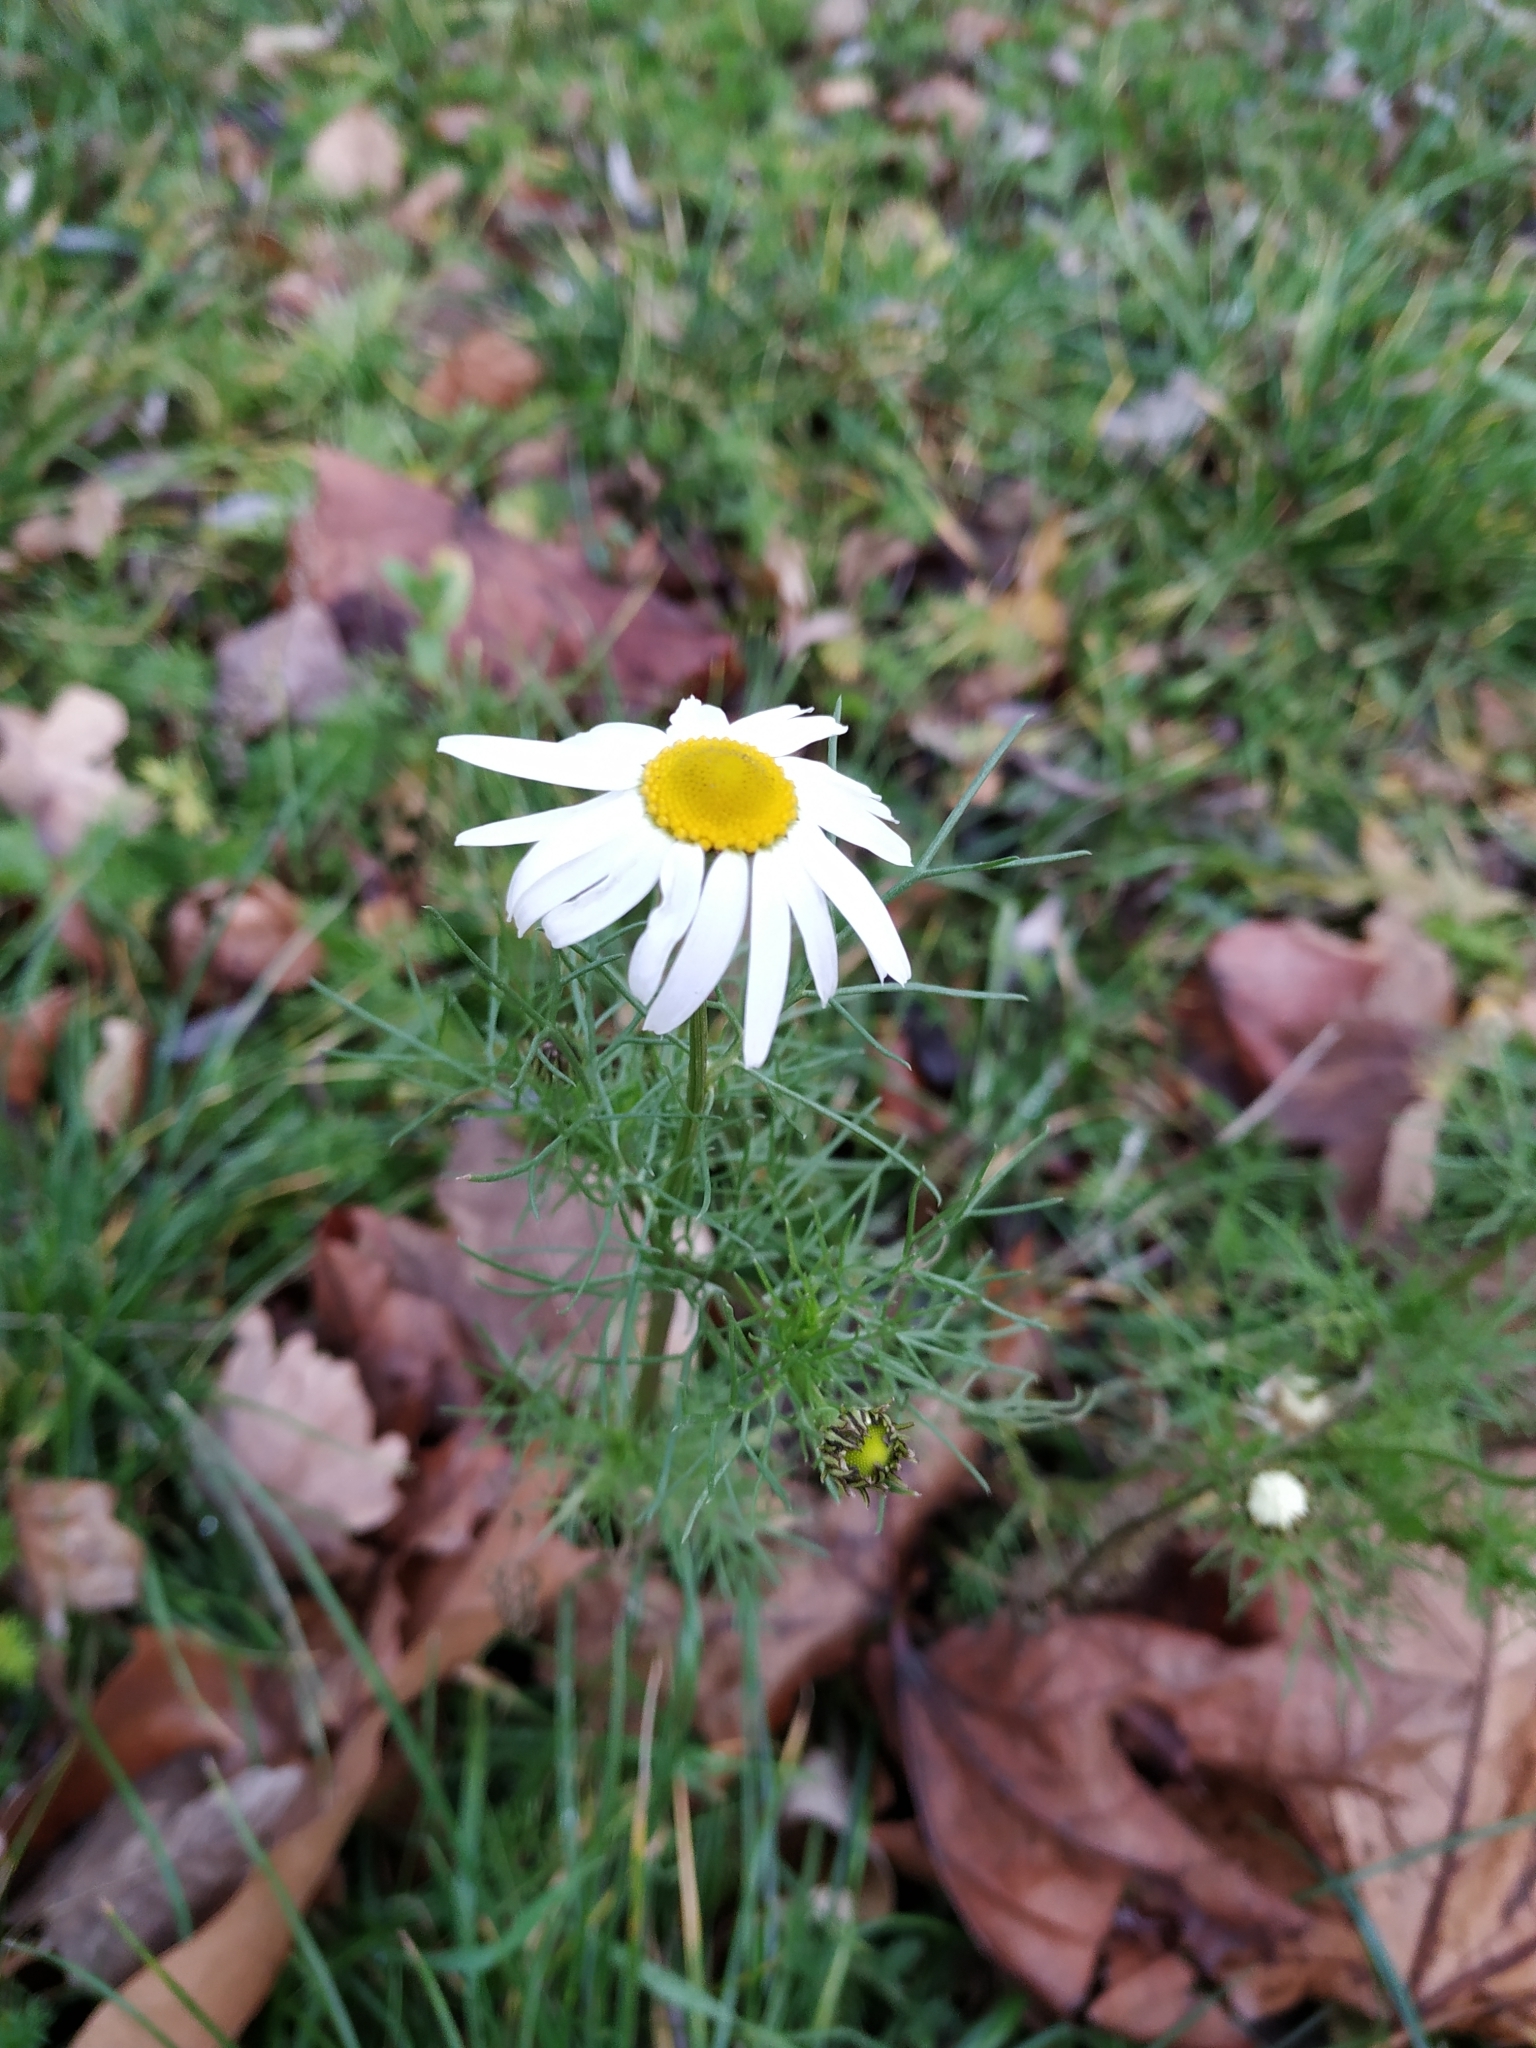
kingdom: Plantae
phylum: Tracheophyta
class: Magnoliopsida
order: Asterales
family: Asteraceae
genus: Tripleurospermum
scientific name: Tripleurospermum inodorum
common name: Scentless mayweed
